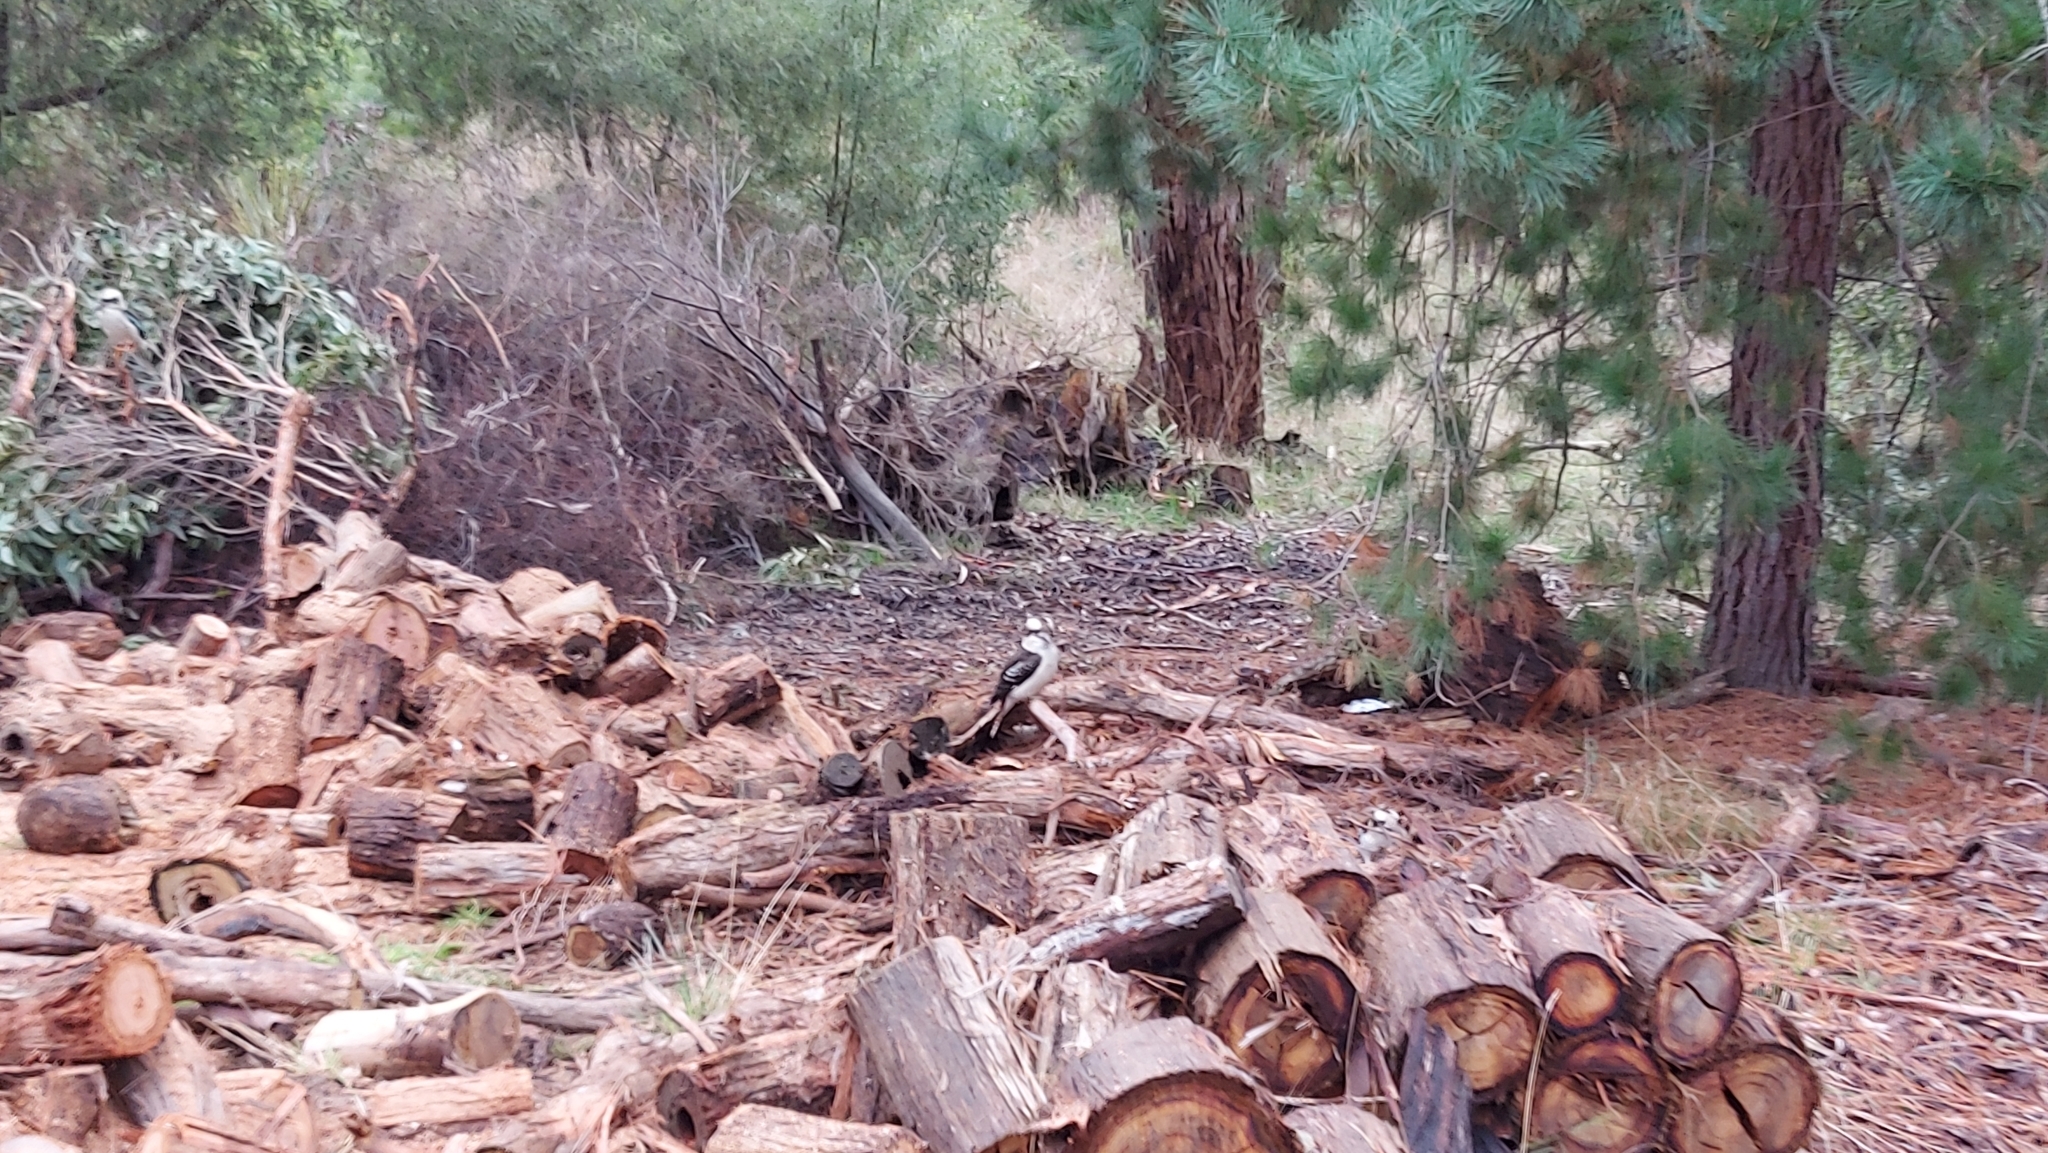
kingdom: Animalia
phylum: Chordata
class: Aves
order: Coraciiformes
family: Alcedinidae
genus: Dacelo
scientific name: Dacelo novaeguineae
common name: Laughing kookaburra
